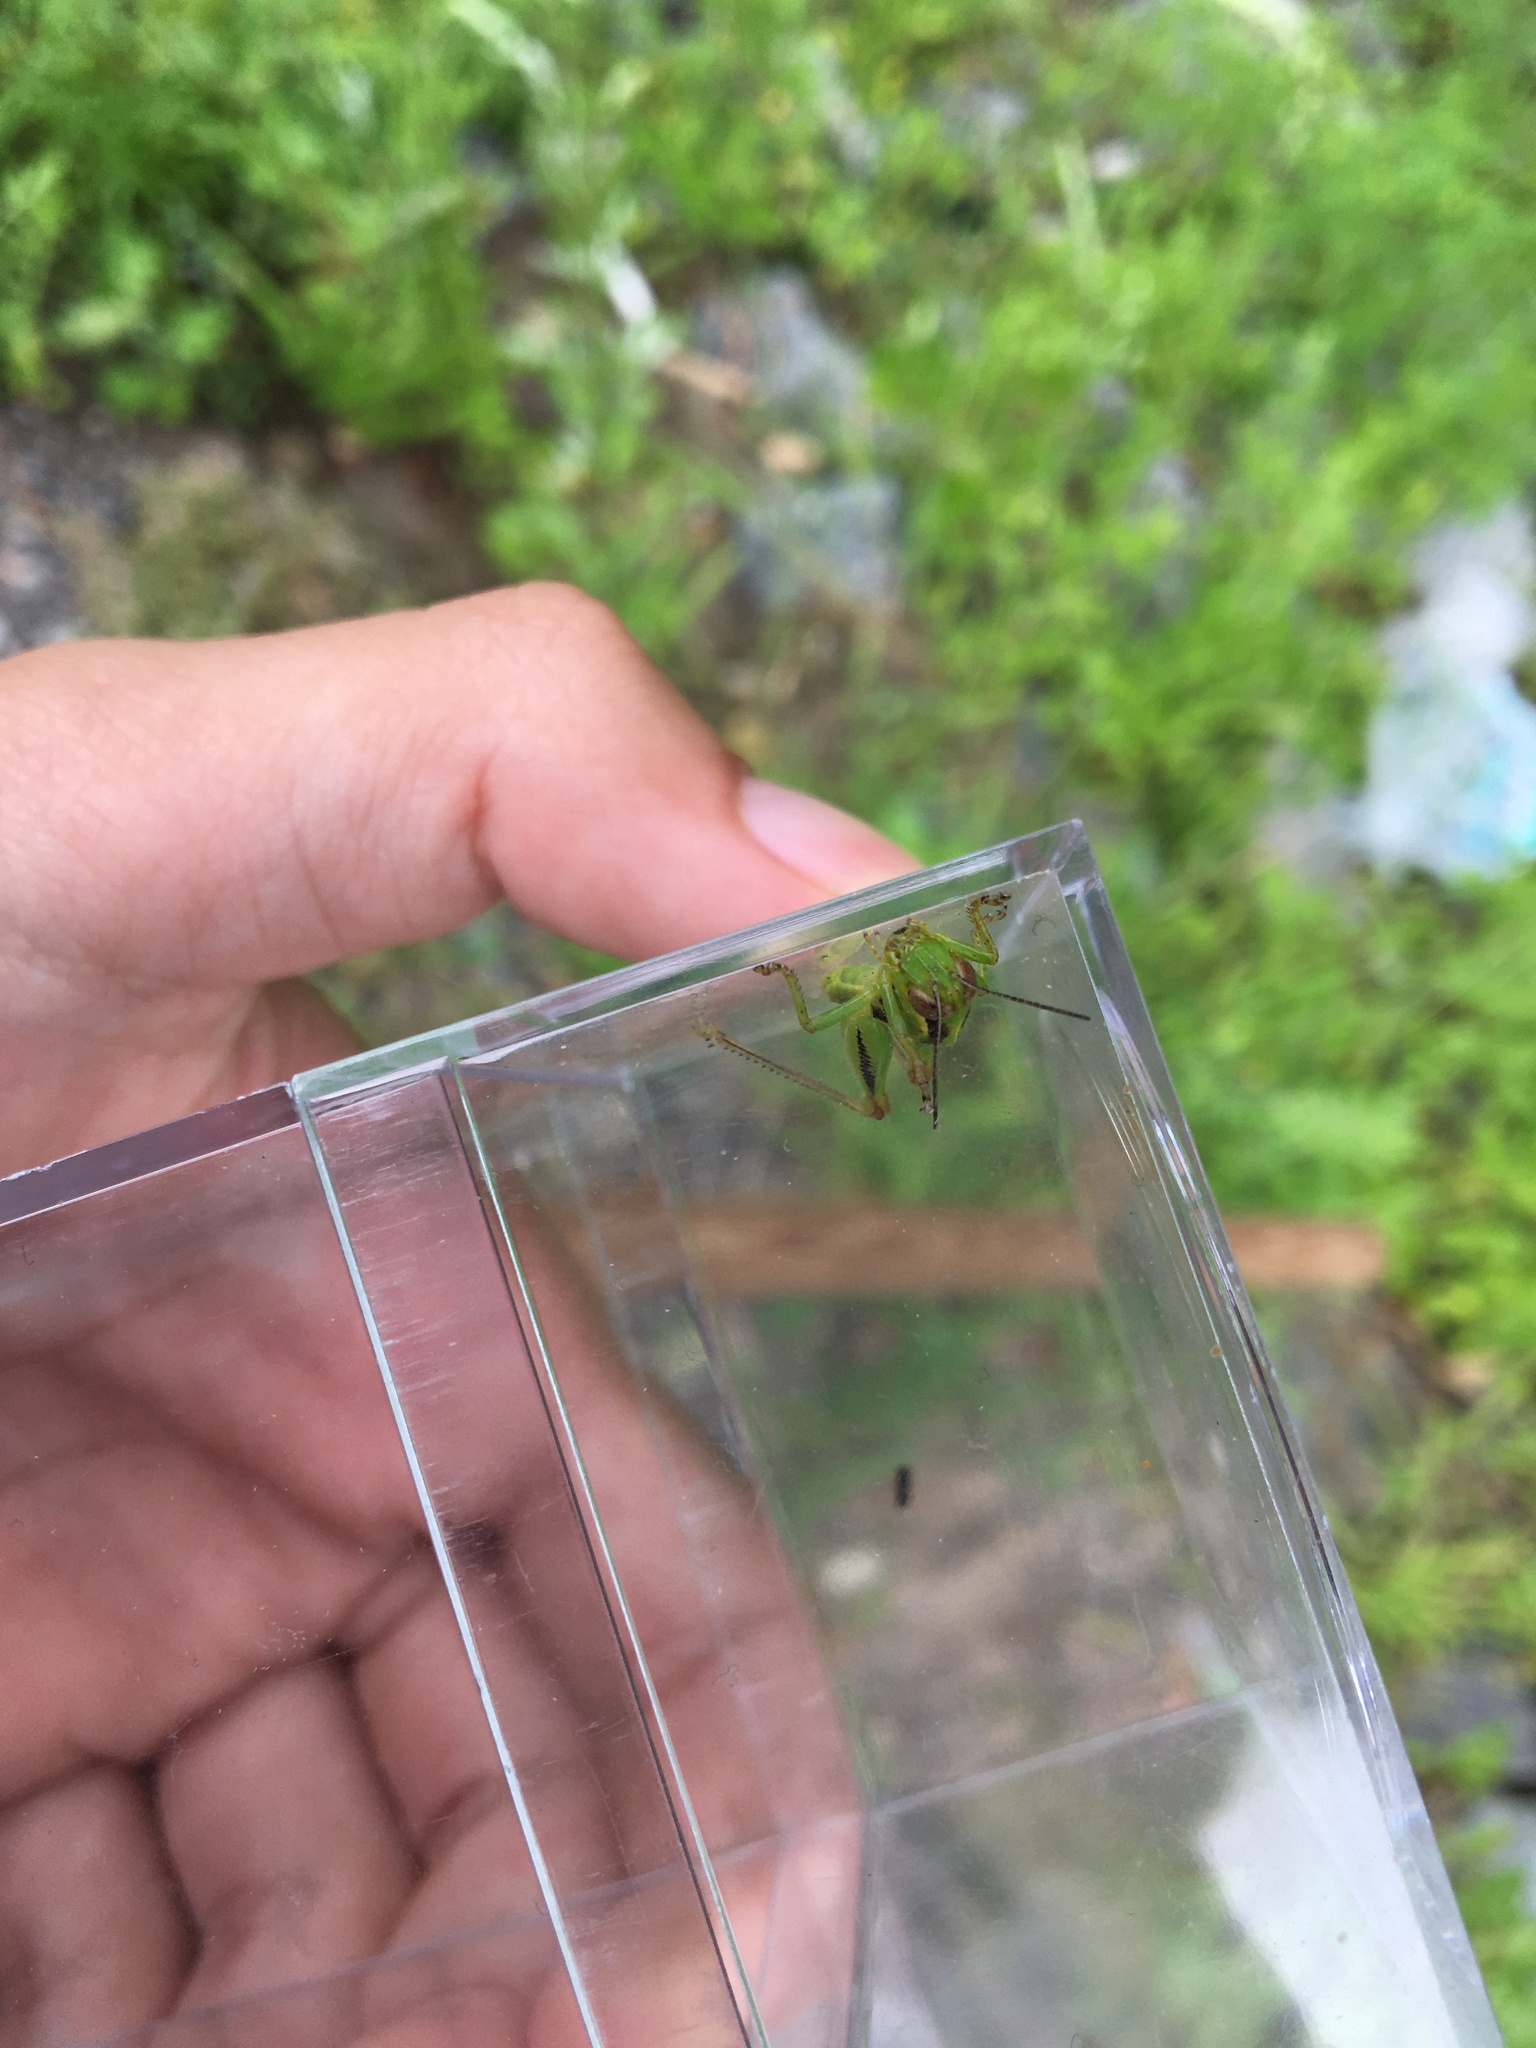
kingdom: Animalia
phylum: Arthropoda
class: Insecta
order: Orthoptera
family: Acrididae
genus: Melanoplus
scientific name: Melanoplus
